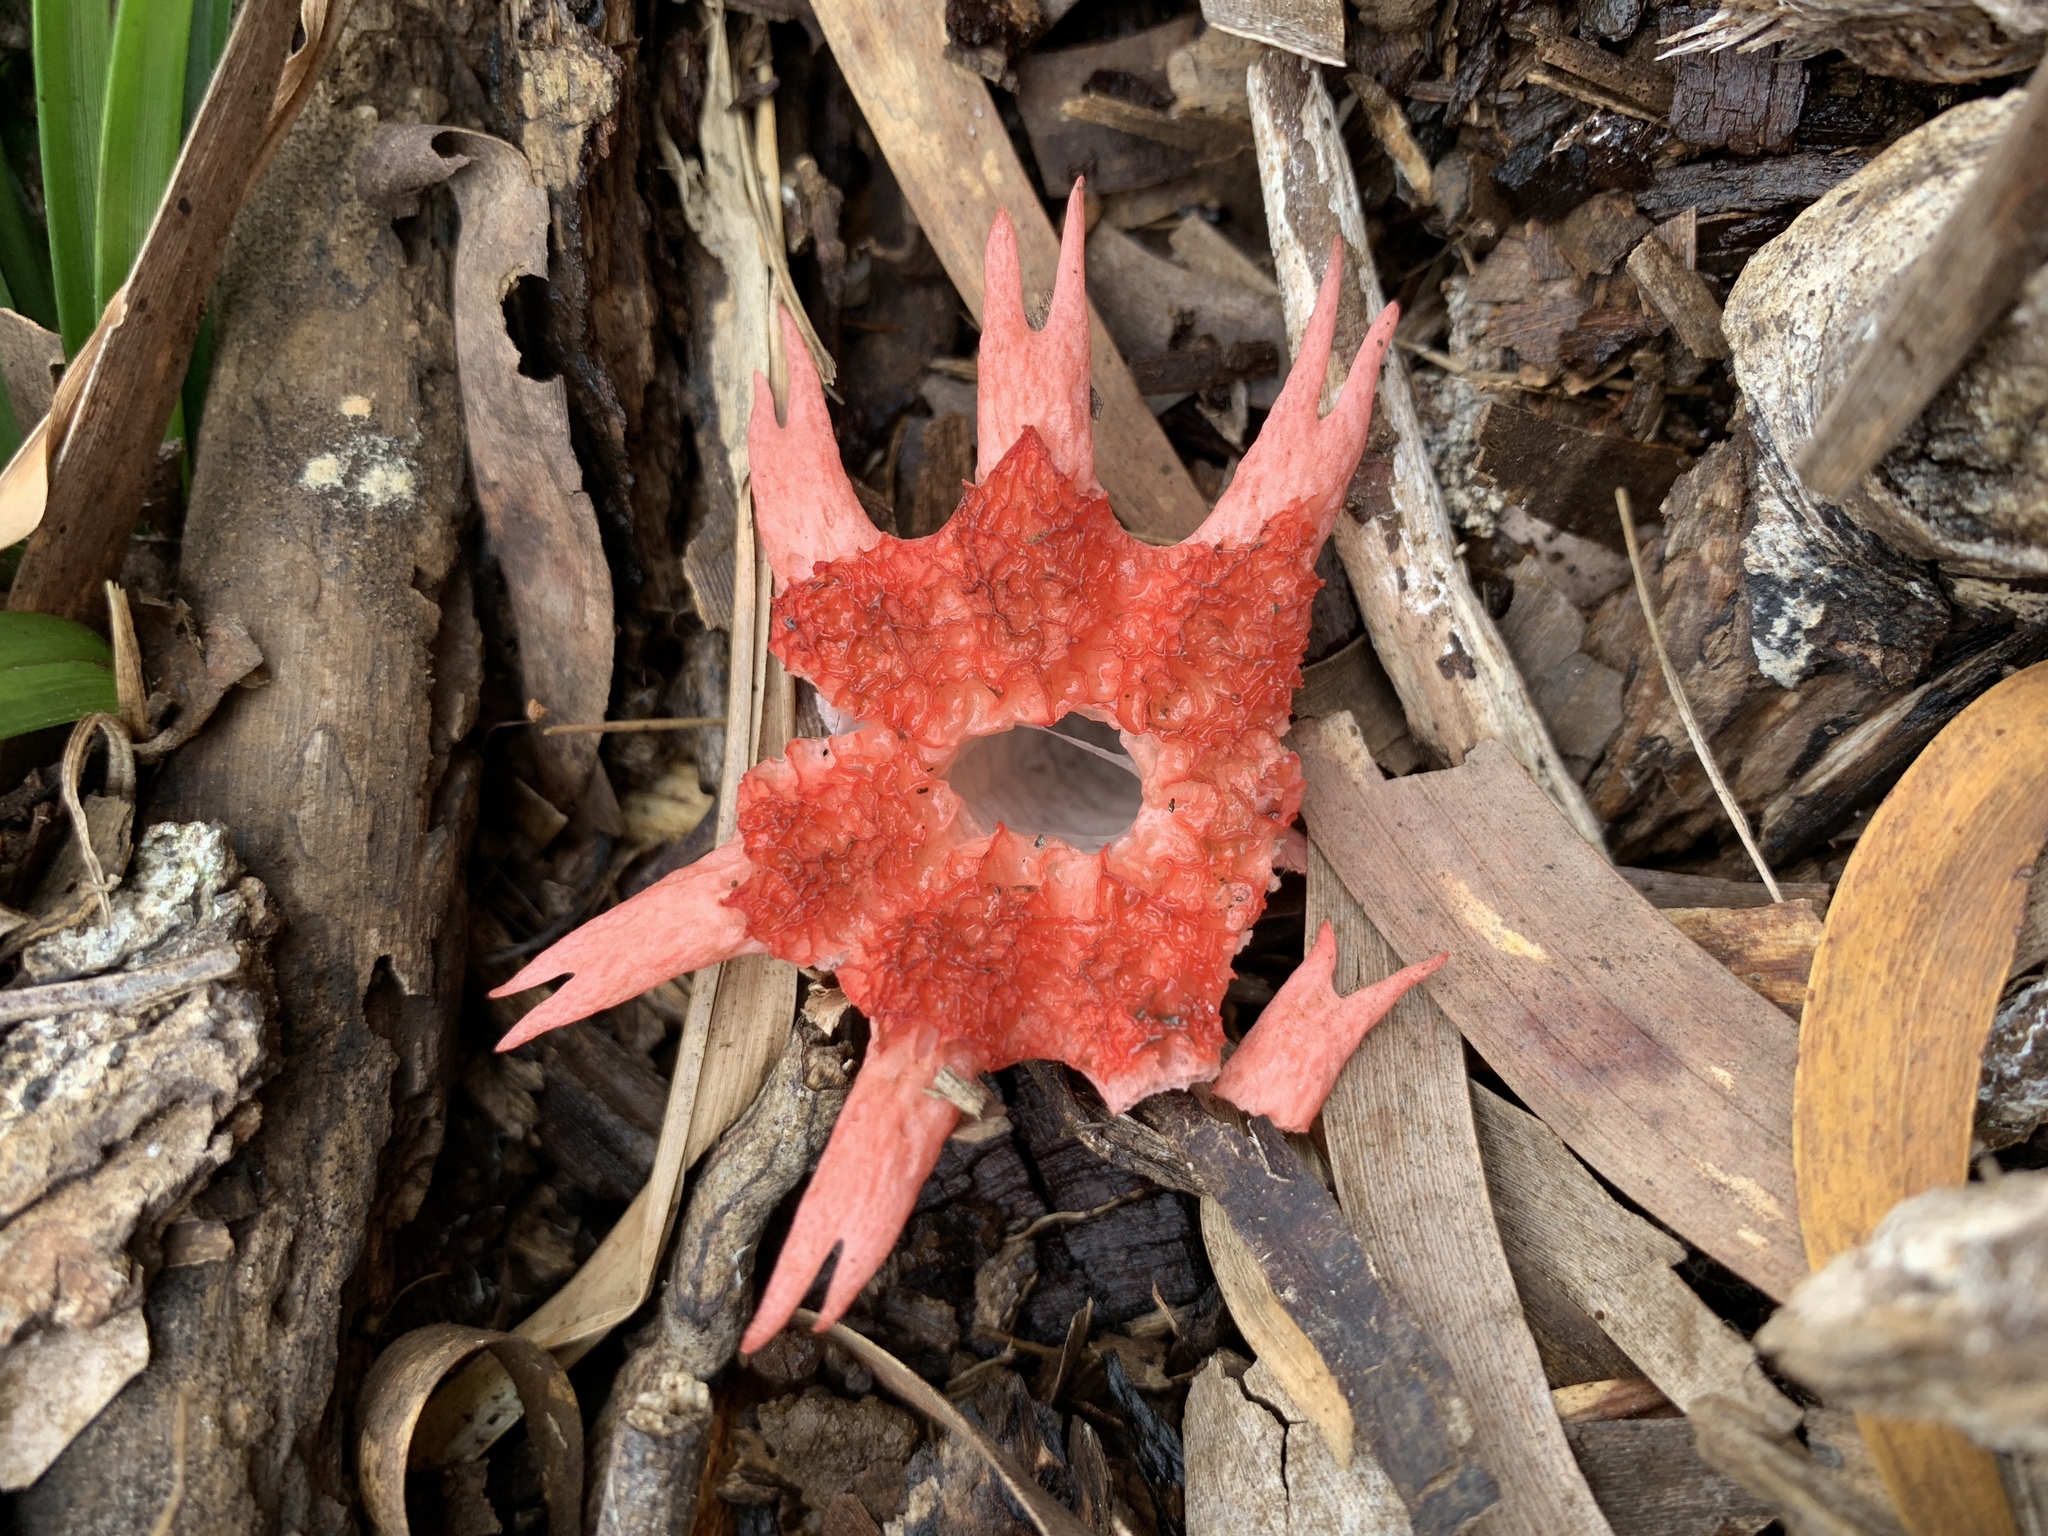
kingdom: Fungi
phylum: Basidiomycota
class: Agaricomycetes
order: Phallales
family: Phallaceae
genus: Aseroe
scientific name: Aseroe rubra
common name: Starfish fungus
